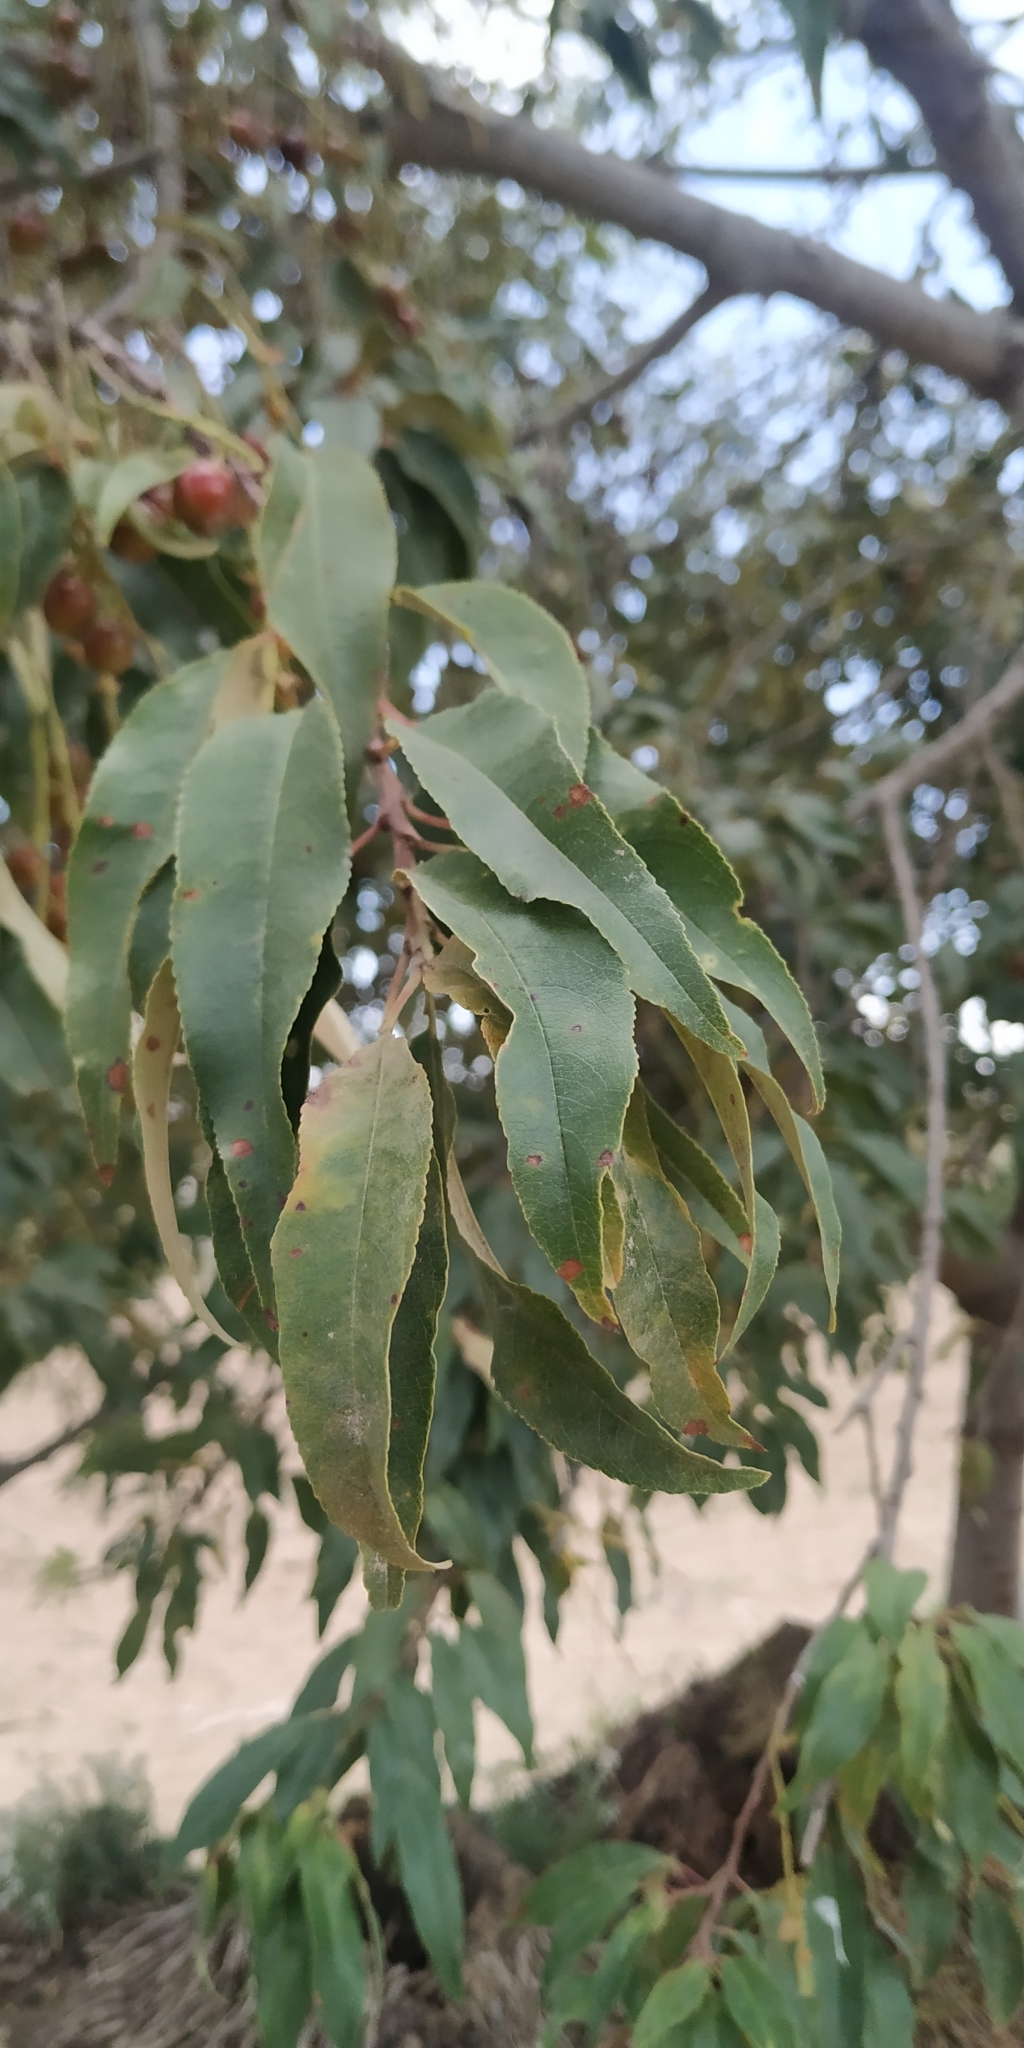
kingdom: Plantae
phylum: Tracheophyta
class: Magnoliopsida
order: Rosales
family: Rosaceae
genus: Prunus
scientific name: Prunus serotina
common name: Black cherry
